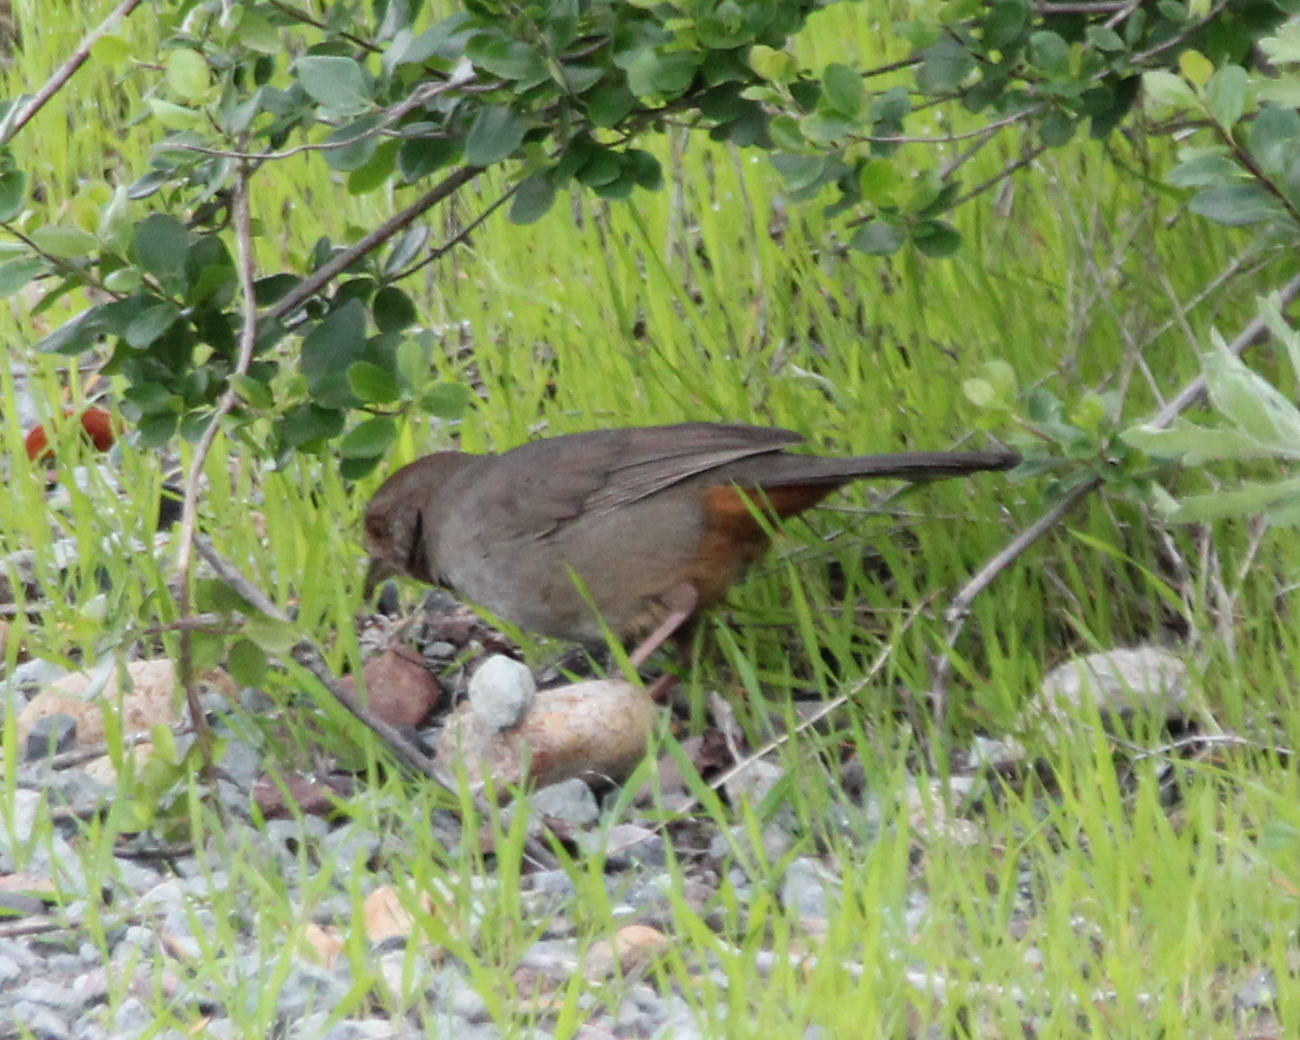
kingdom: Animalia
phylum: Chordata
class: Aves
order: Passeriformes
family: Passerellidae
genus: Melozone
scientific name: Melozone crissalis
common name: California towhee
